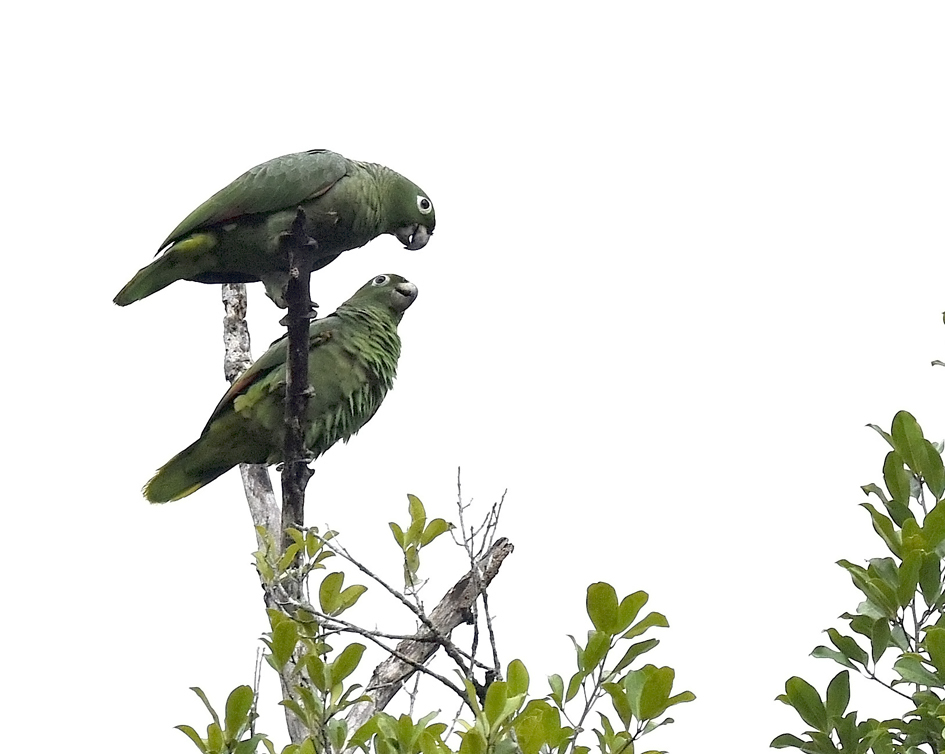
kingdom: Animalia
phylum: Chordata
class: Aves
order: Psittaciformes
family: Psittacidae
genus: Amazona
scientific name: Amazona farinosa
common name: Mealy parrot
